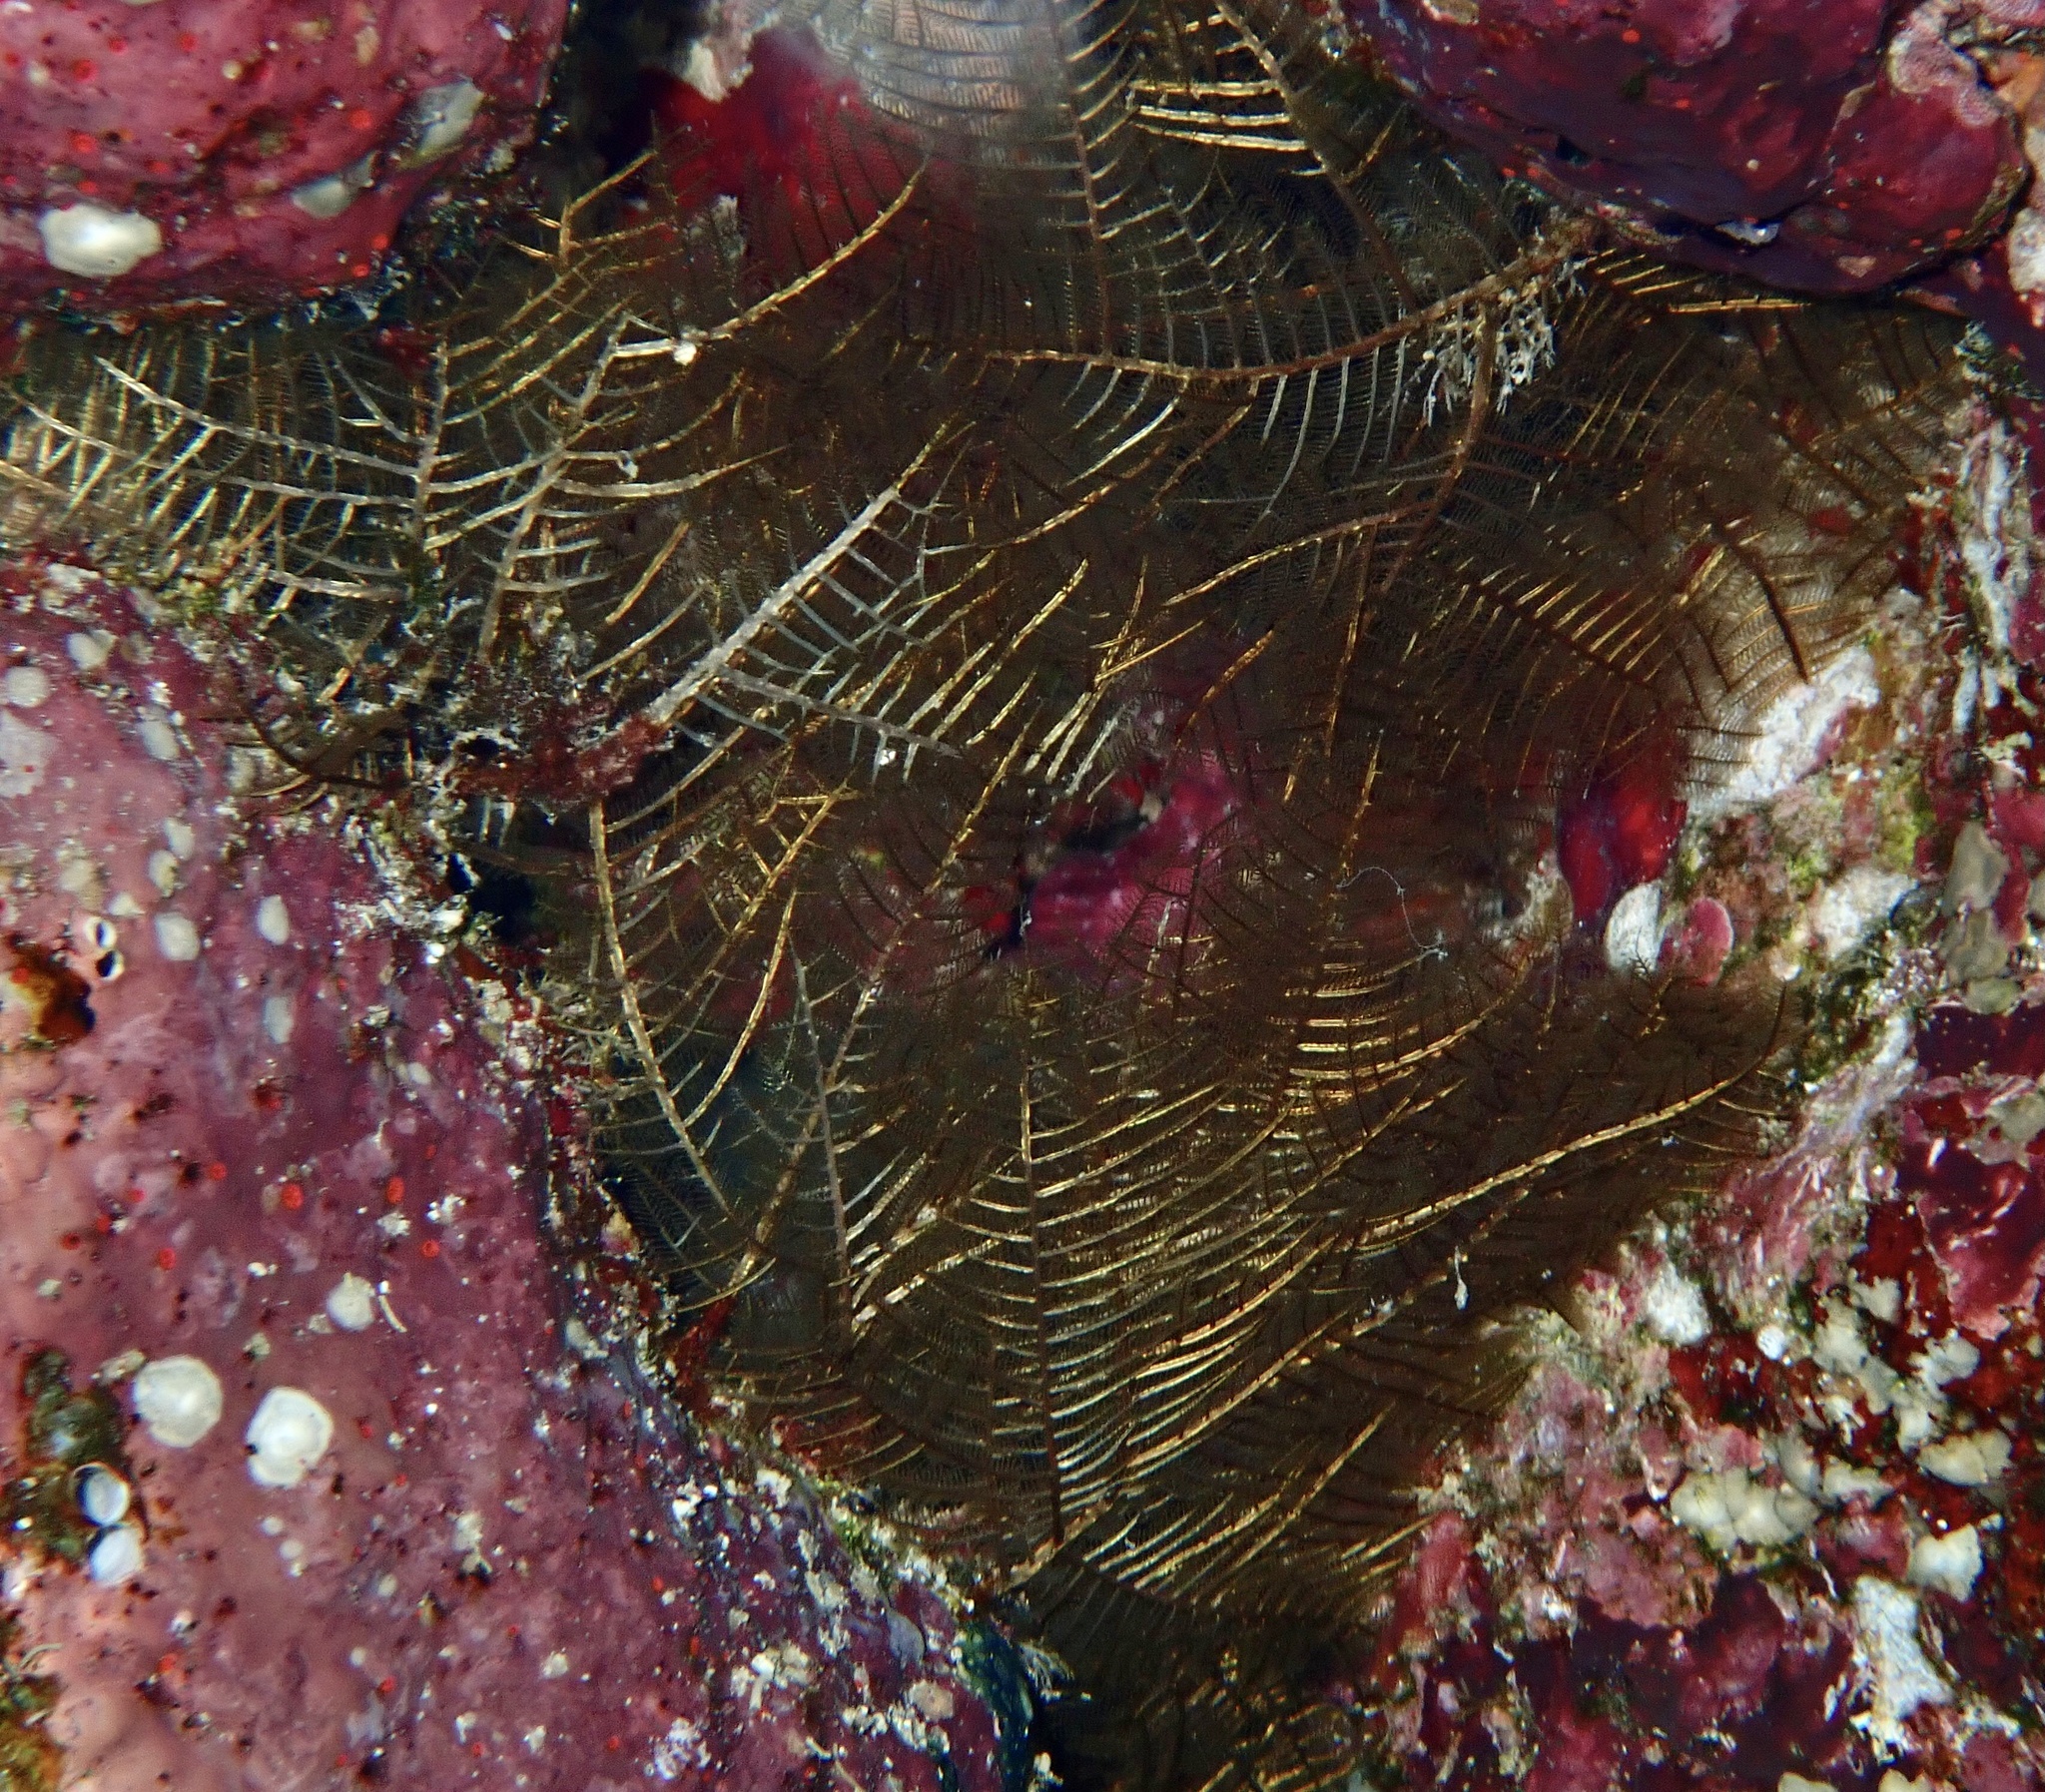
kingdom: Animalia
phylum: Cnidaria
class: Hydrozoa
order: Leptothecata
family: Aglaopheniidae
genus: Macrorhynchia
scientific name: Macrorhynchia phoenicea
